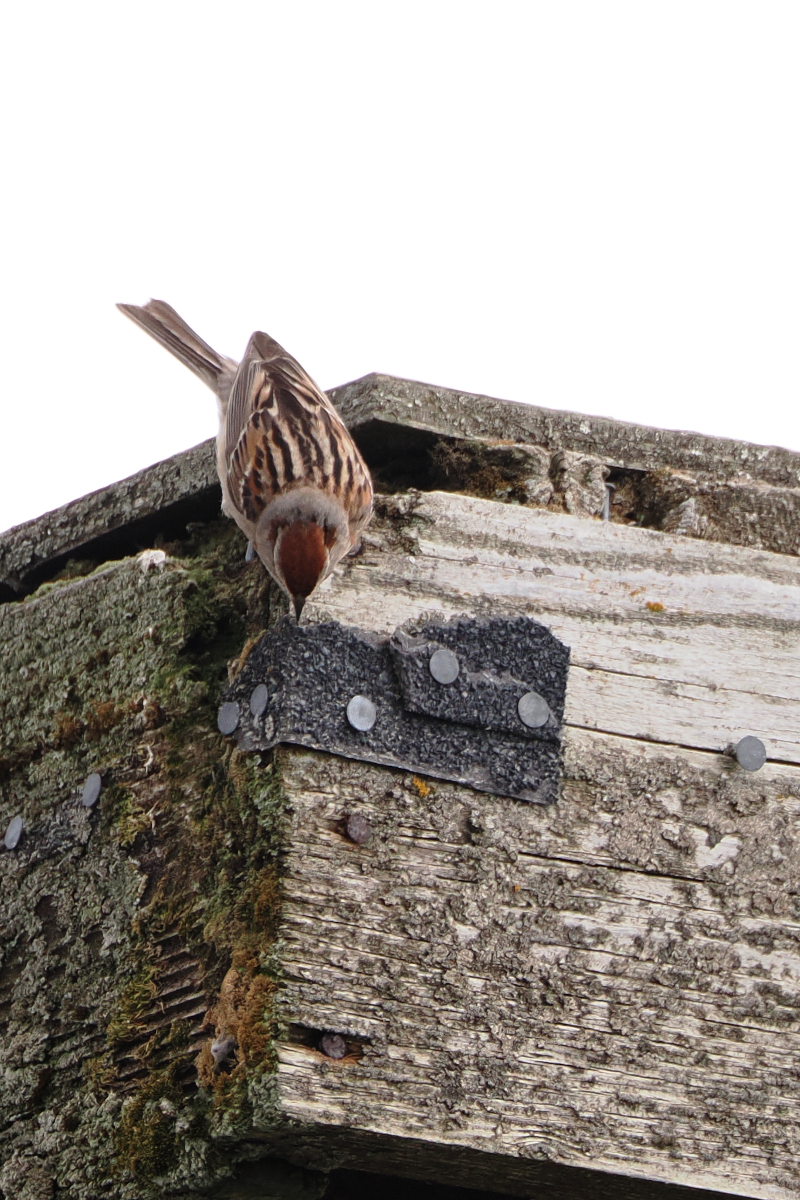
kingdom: Animalia
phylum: Chordata
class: Aves
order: Passeriformes
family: Passerellidae
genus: Spizelloides
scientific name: Spizelloides arborea
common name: American tree sparrow
